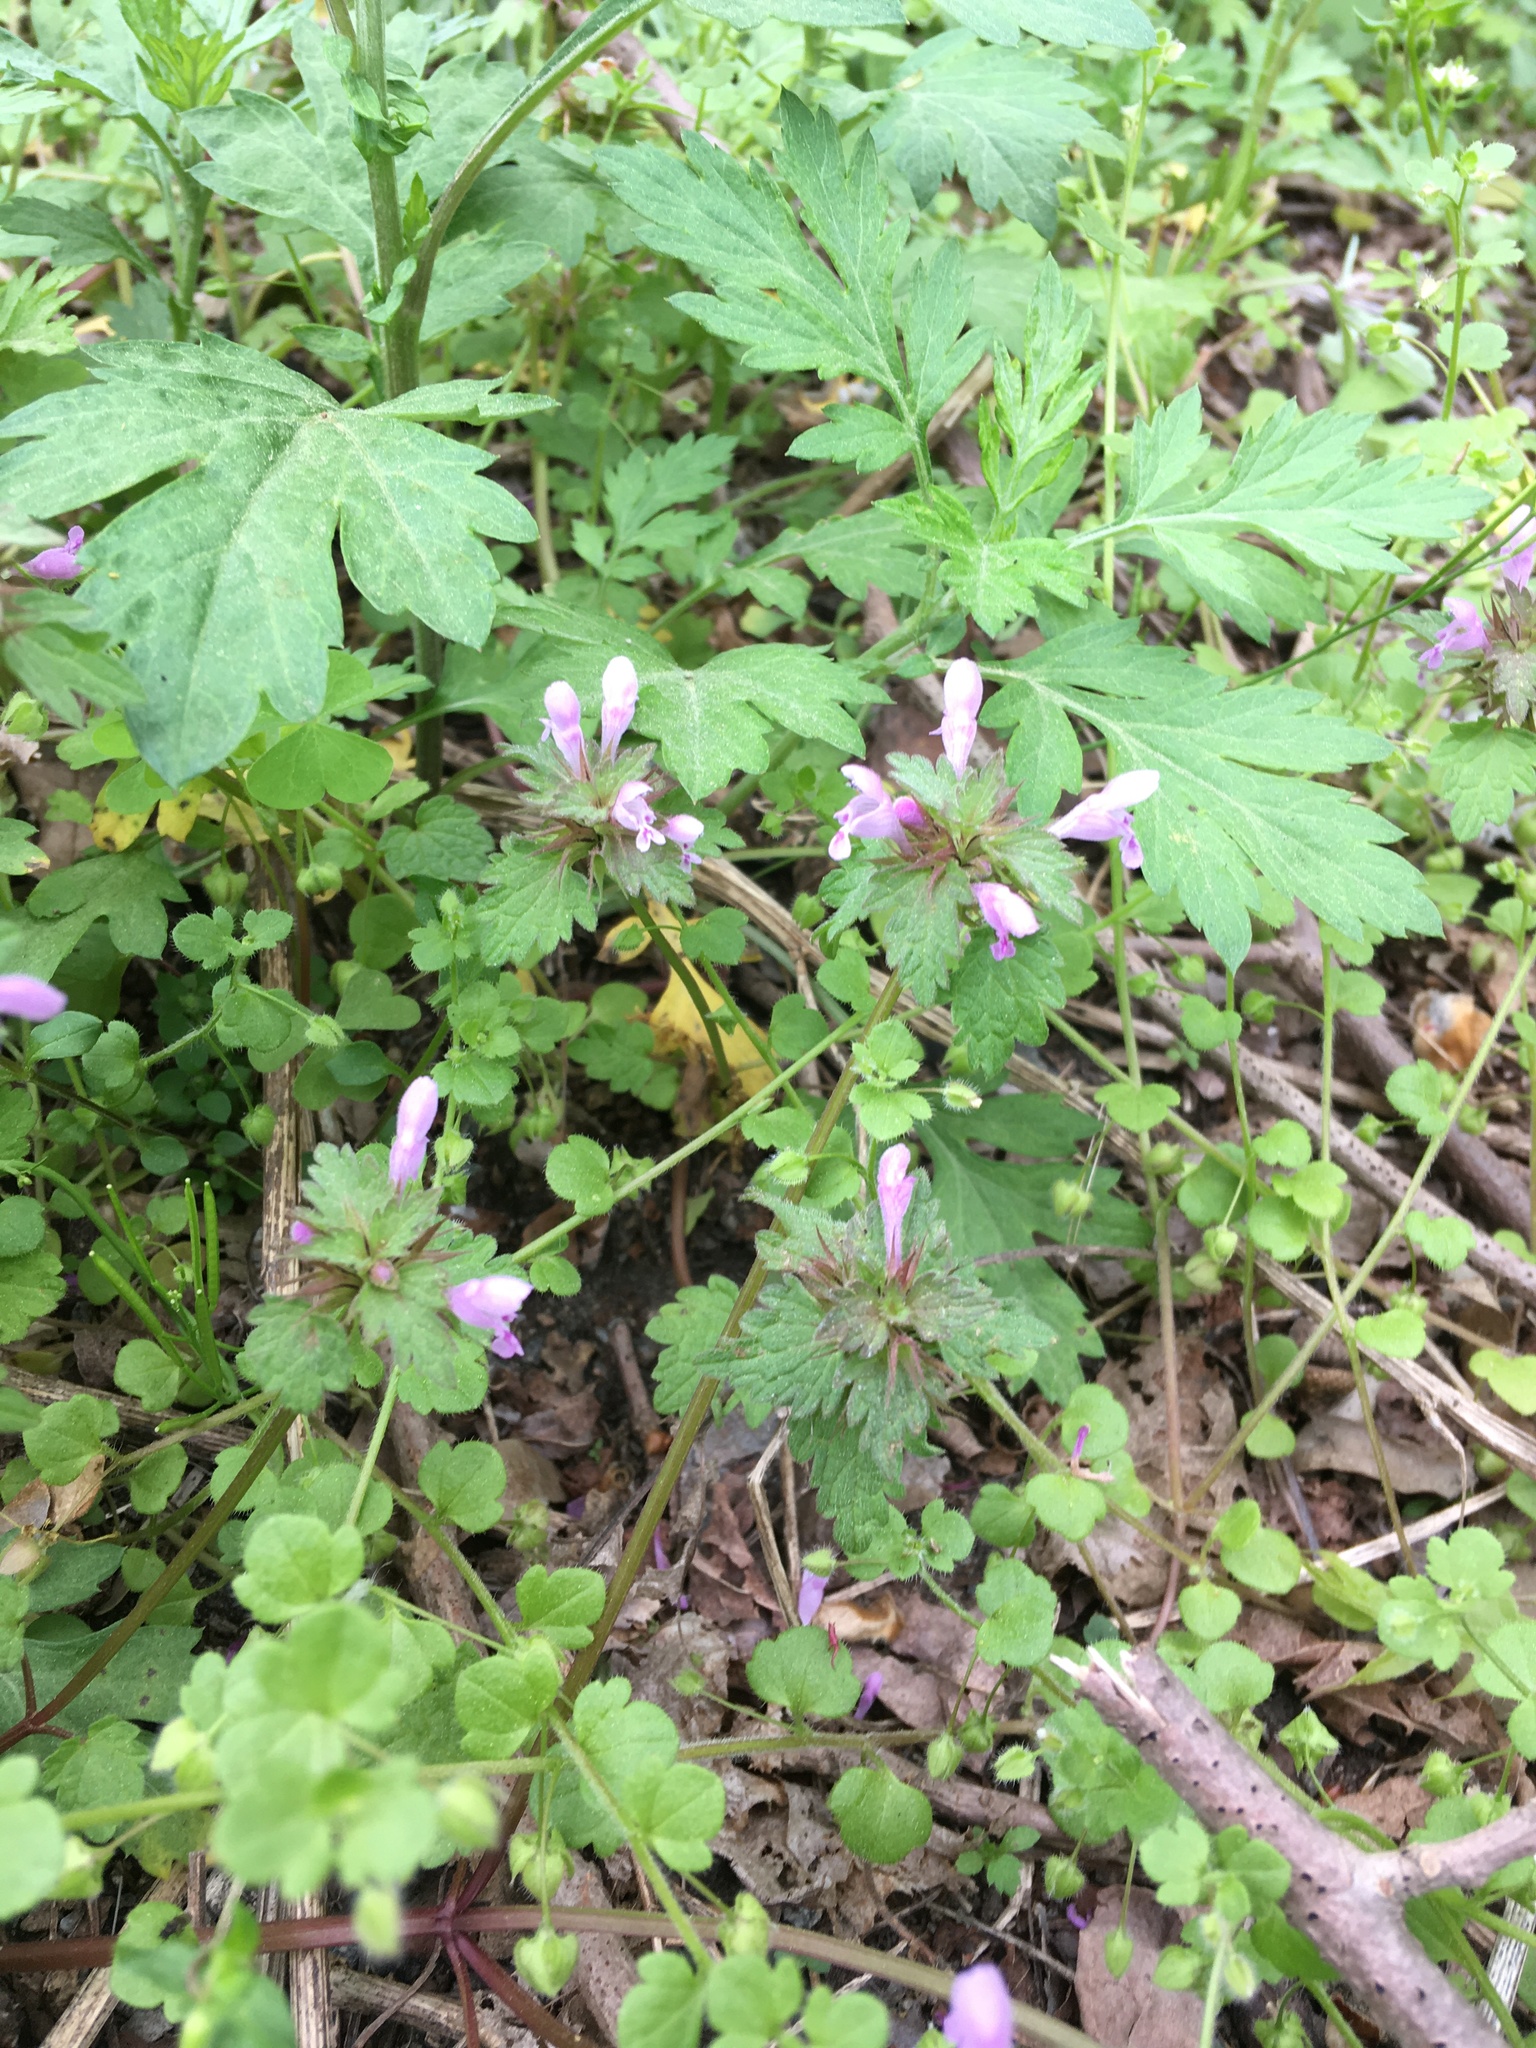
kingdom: Plantae
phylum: Tracheophyta
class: Magnoliopsida
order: Lamiales
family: Lamiaceae
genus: Lamium
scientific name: Lamium hybridum
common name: Cut-leaved dead-nettle
